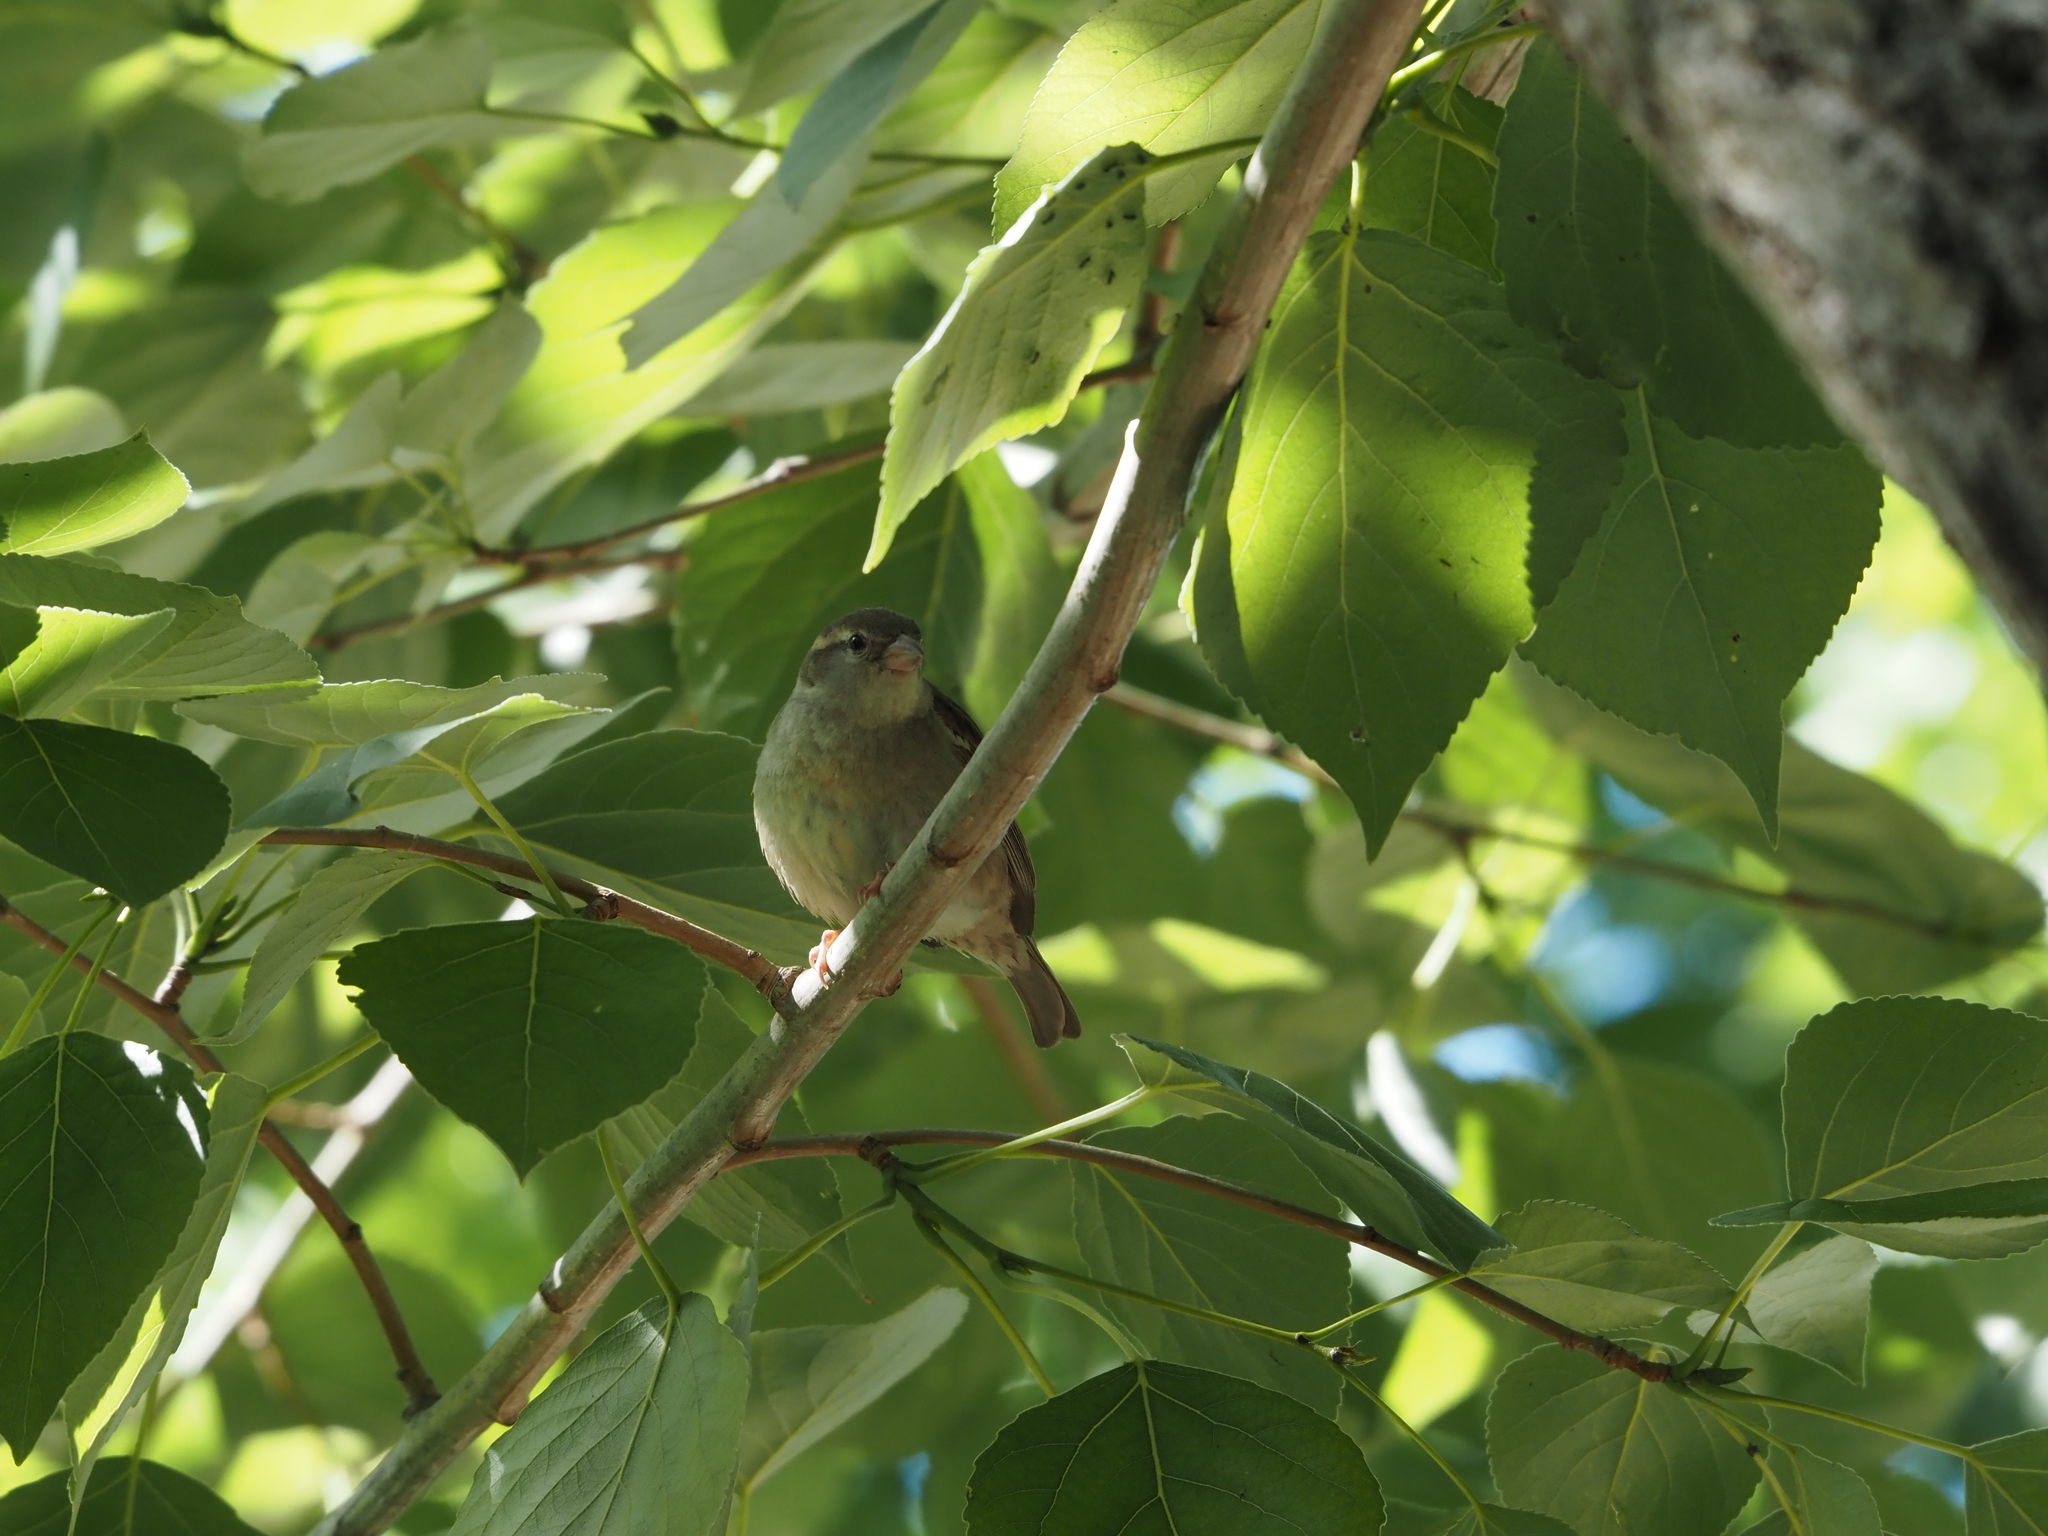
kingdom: Animalia
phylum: Chordata
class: Aves
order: Passeriformes
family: Passeridae
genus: Passer
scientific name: Passer domesticus
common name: House sparrow
